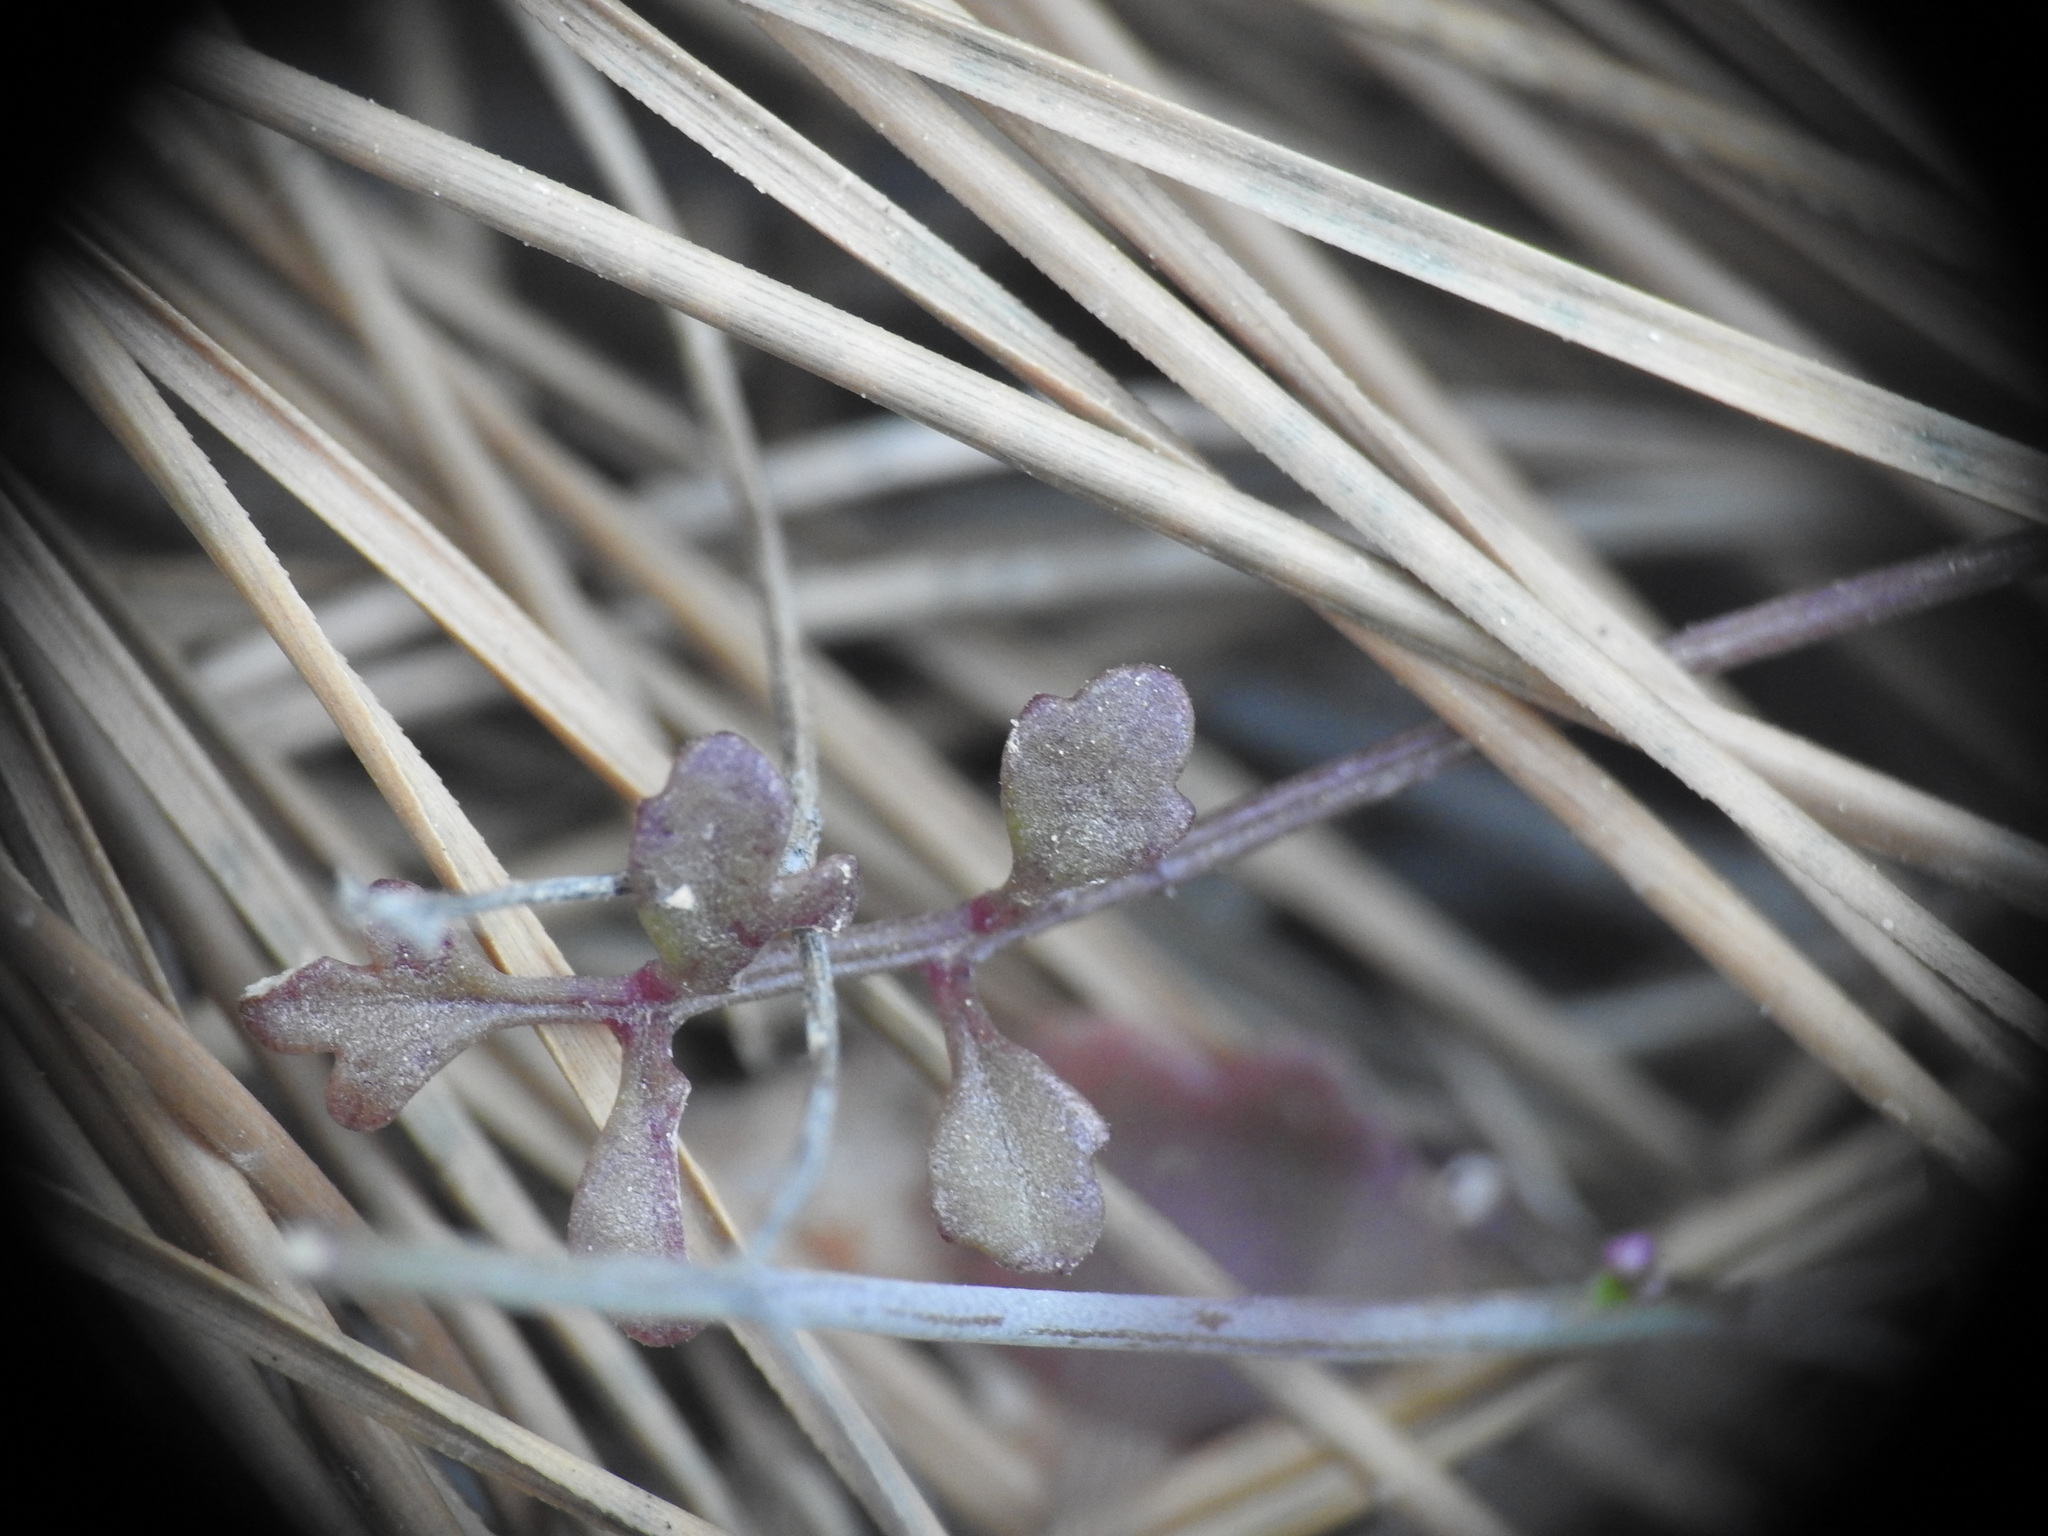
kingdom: Plantae
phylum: Tracheophyta
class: Magnoliopsida
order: Brassicales
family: Brassicaceae
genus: Ricotia
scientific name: Ricotia cretica
